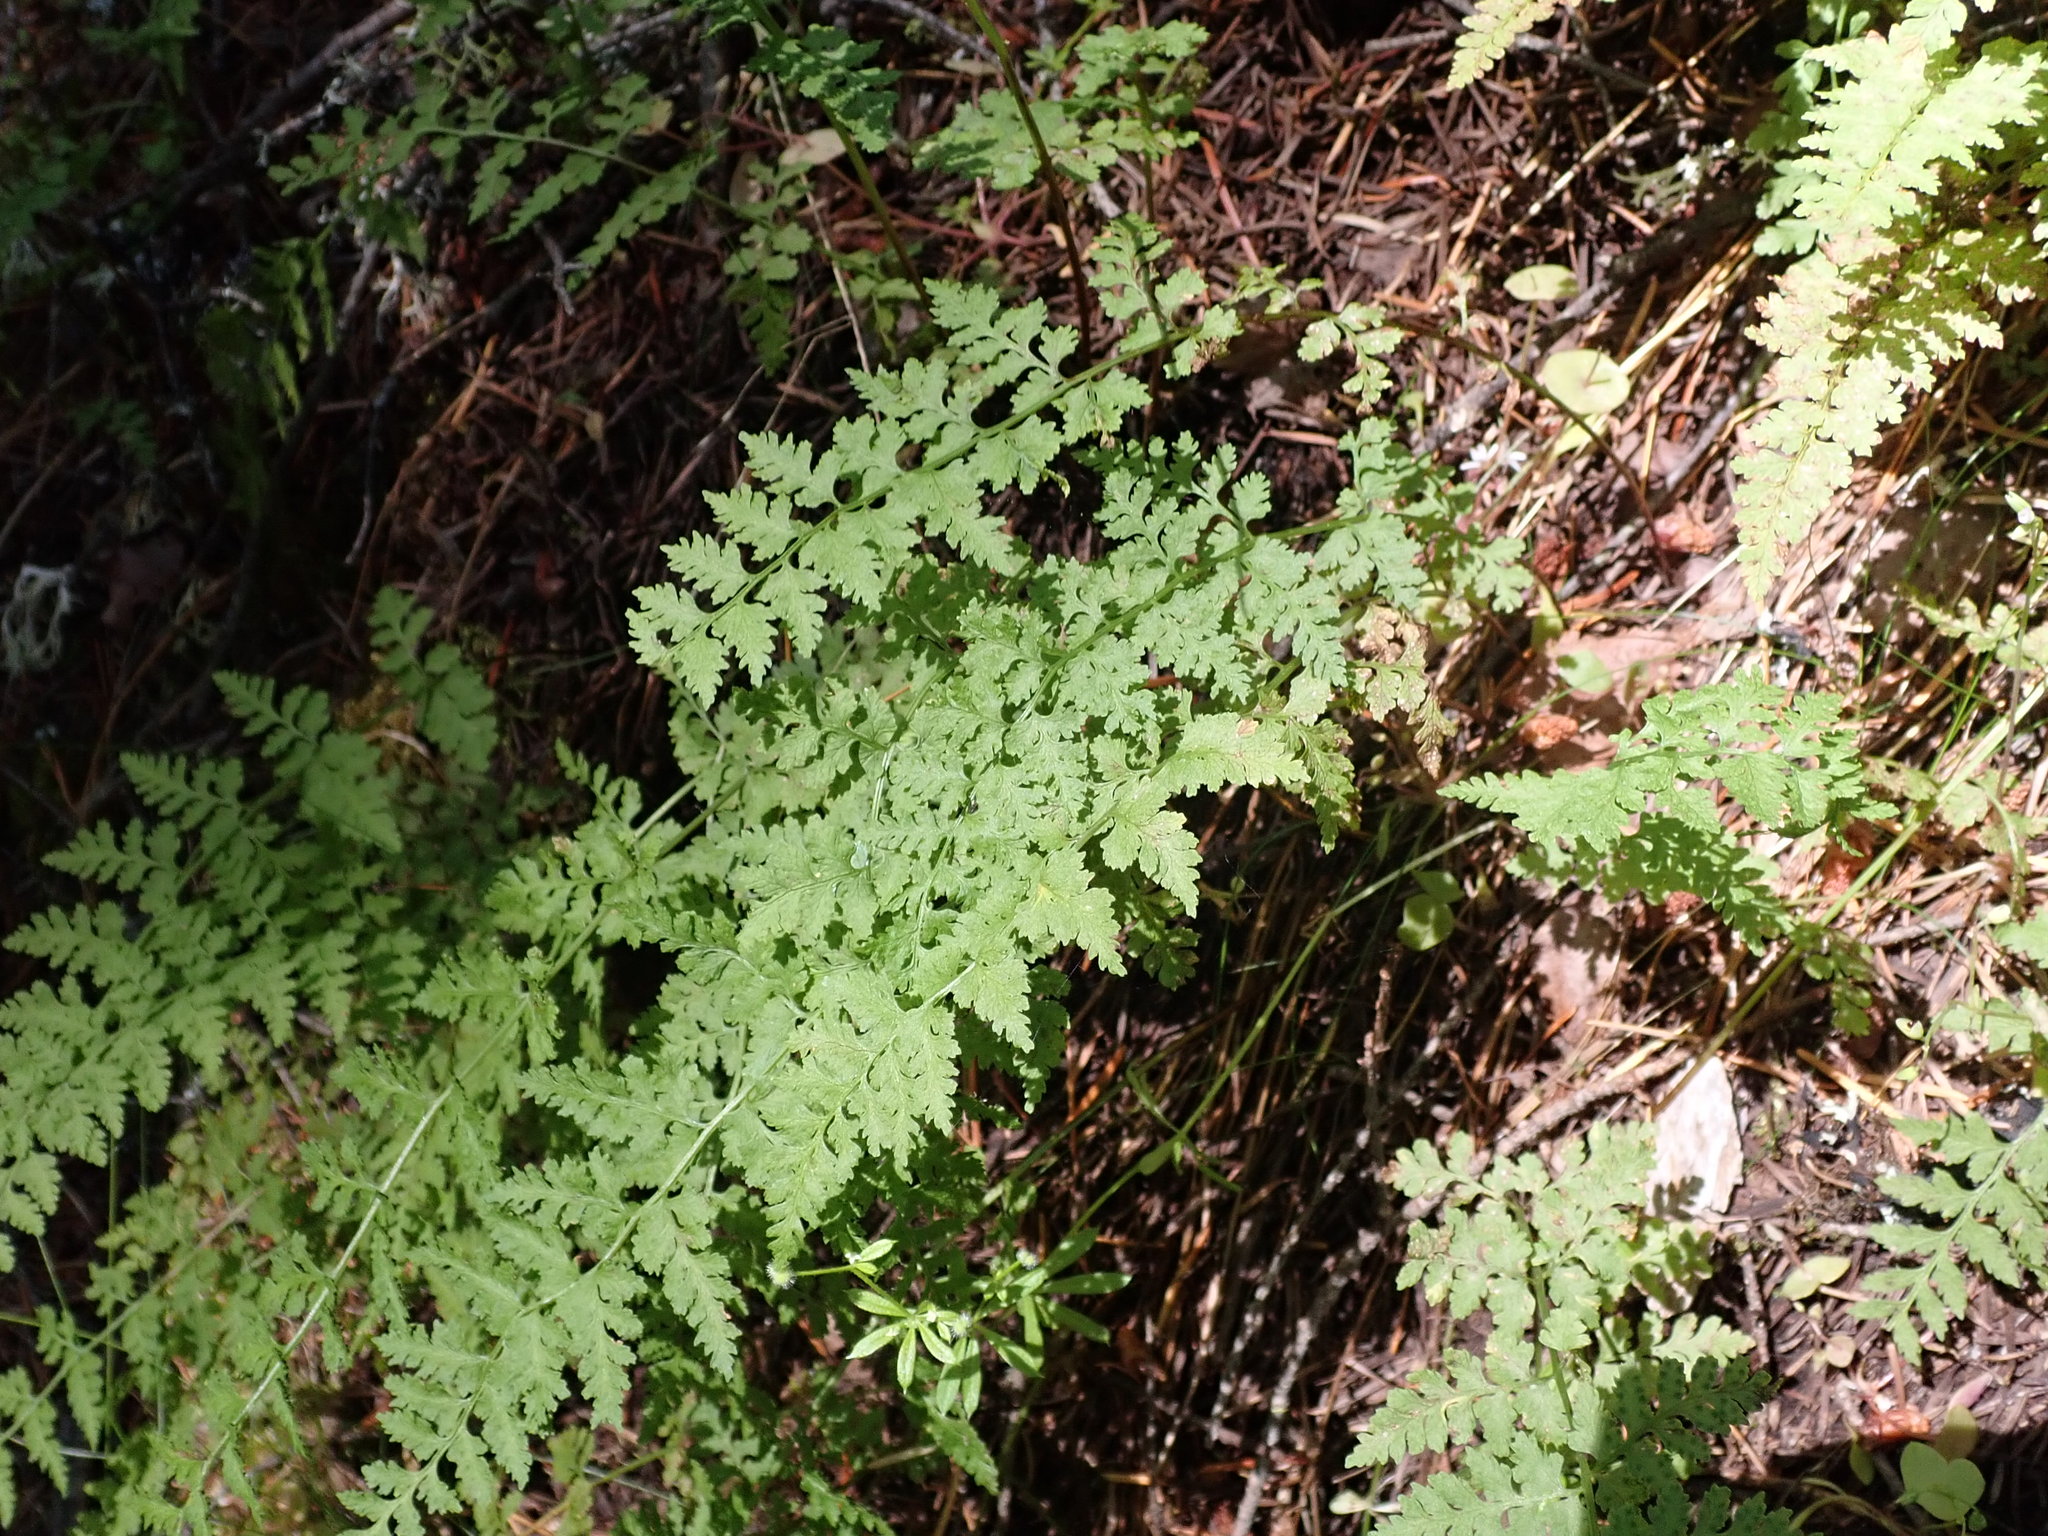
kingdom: Plantae
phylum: Tracheophyta
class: Polypodiopsida
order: Polypodiales
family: Cystopteridaceae
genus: Cystopteris
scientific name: Cystopteris fragilis
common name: Brittle bladder fern
